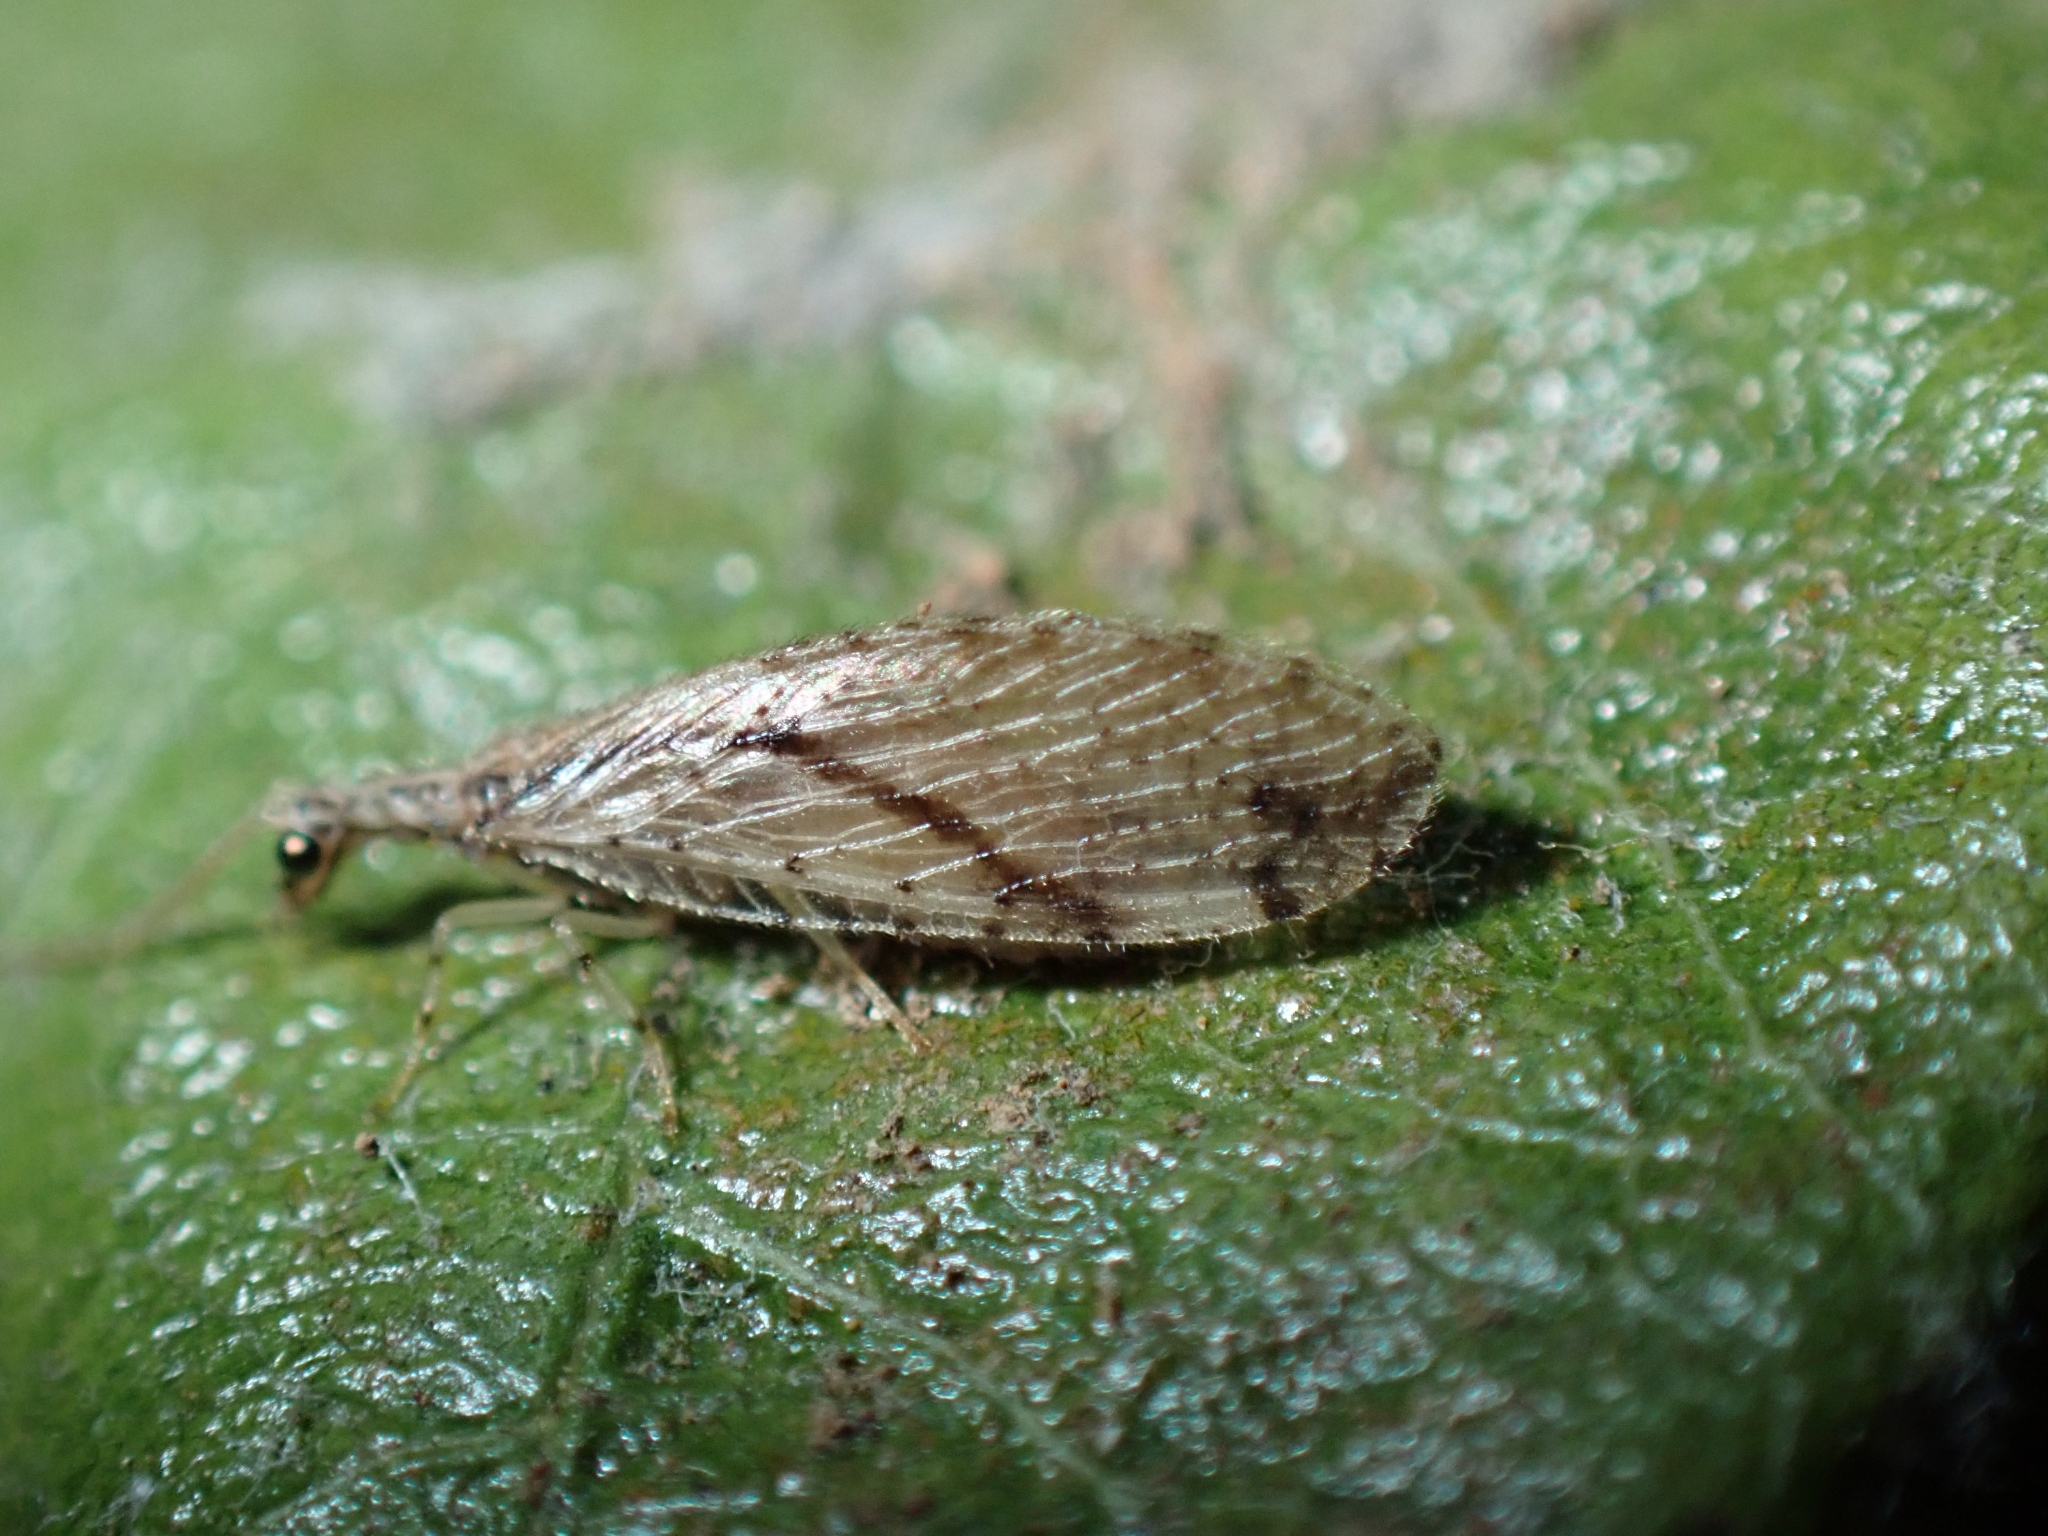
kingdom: Animalia
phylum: Arthropoda
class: Insecta
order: Neuroptera
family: Hemerobiidae
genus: Micromus
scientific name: Micromus canariensis
